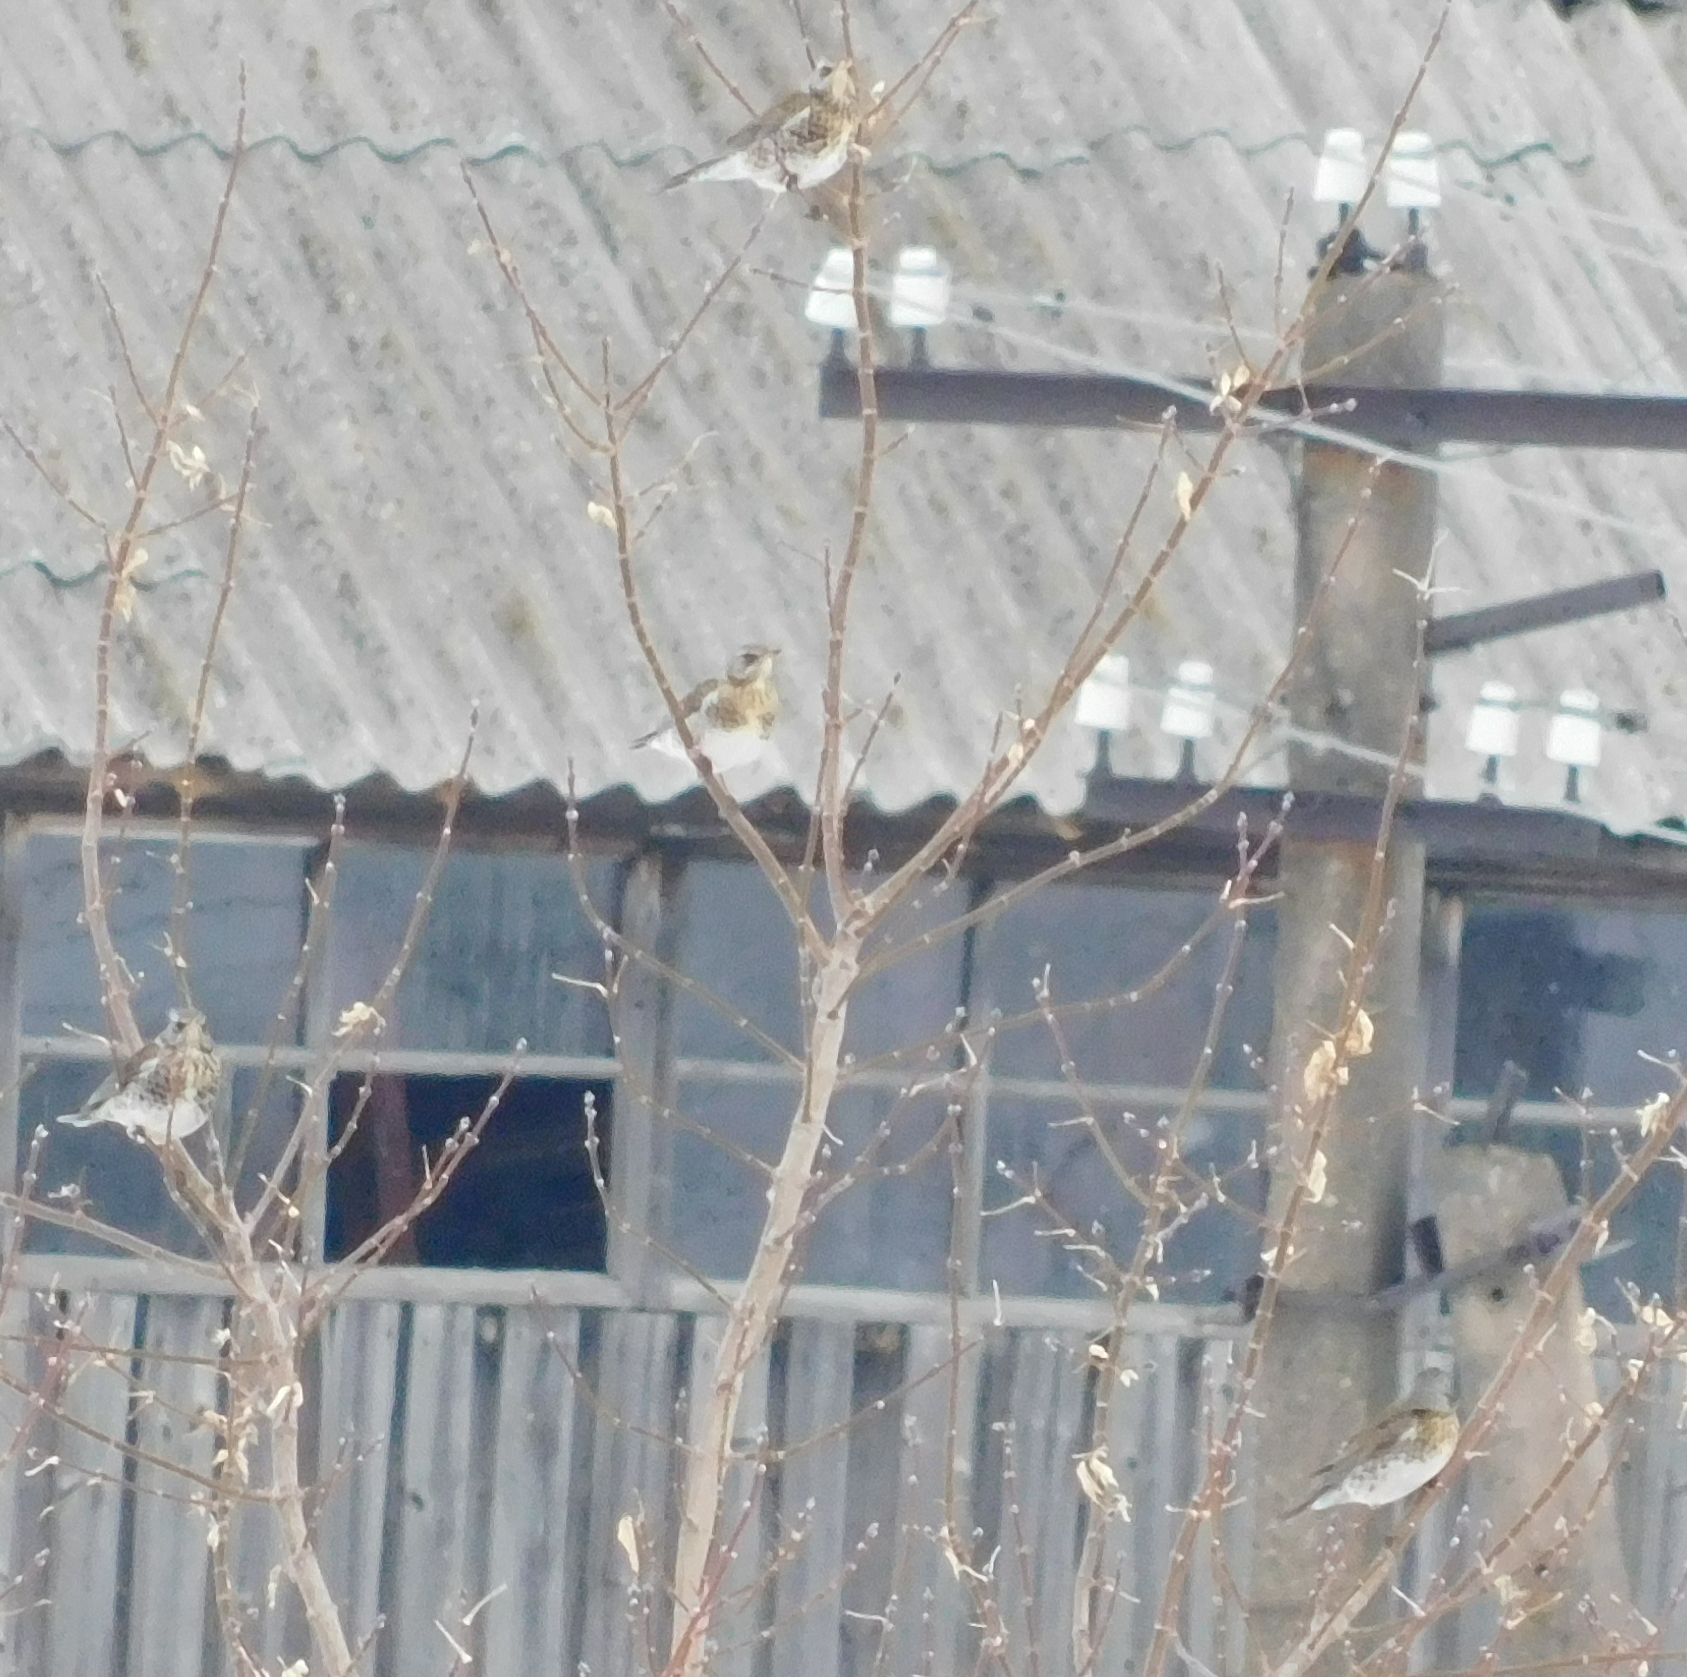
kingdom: Animalia
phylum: Chordata
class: Aves
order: Passeriformes
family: Turdidae
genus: Turdus
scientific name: Turdus pilaris
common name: Fieldfare
